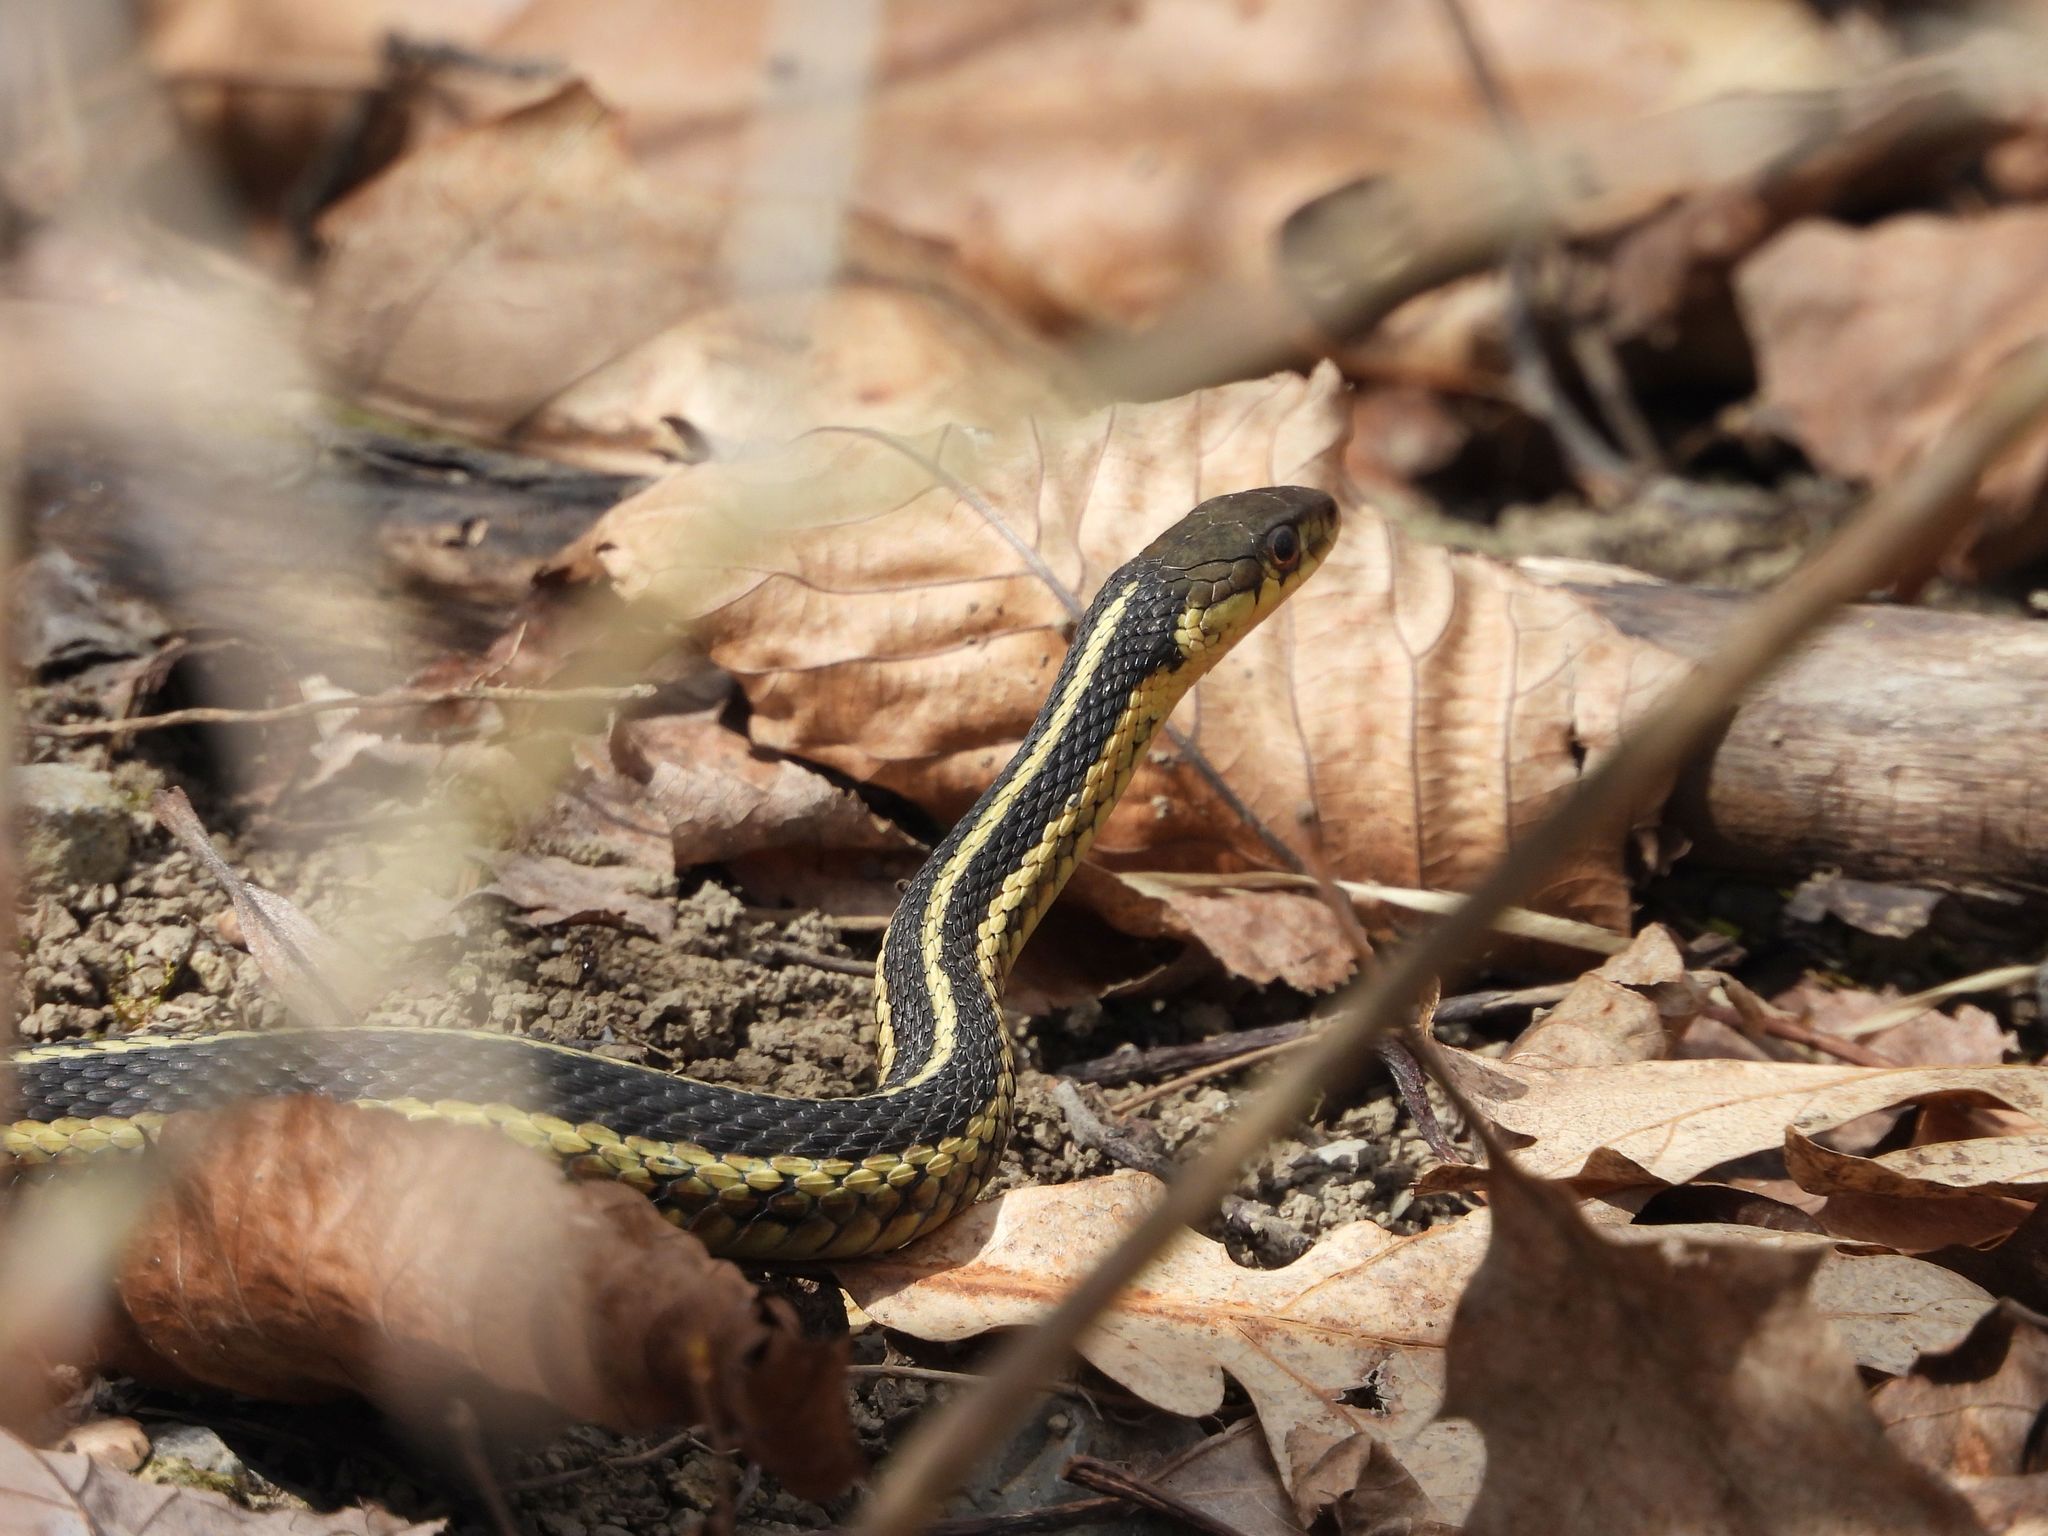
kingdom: Animalia
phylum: Chordata
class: Squamata
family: Colubridae
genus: Thamnophis
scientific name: Thamnophis sirtalis
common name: Common garter snake
